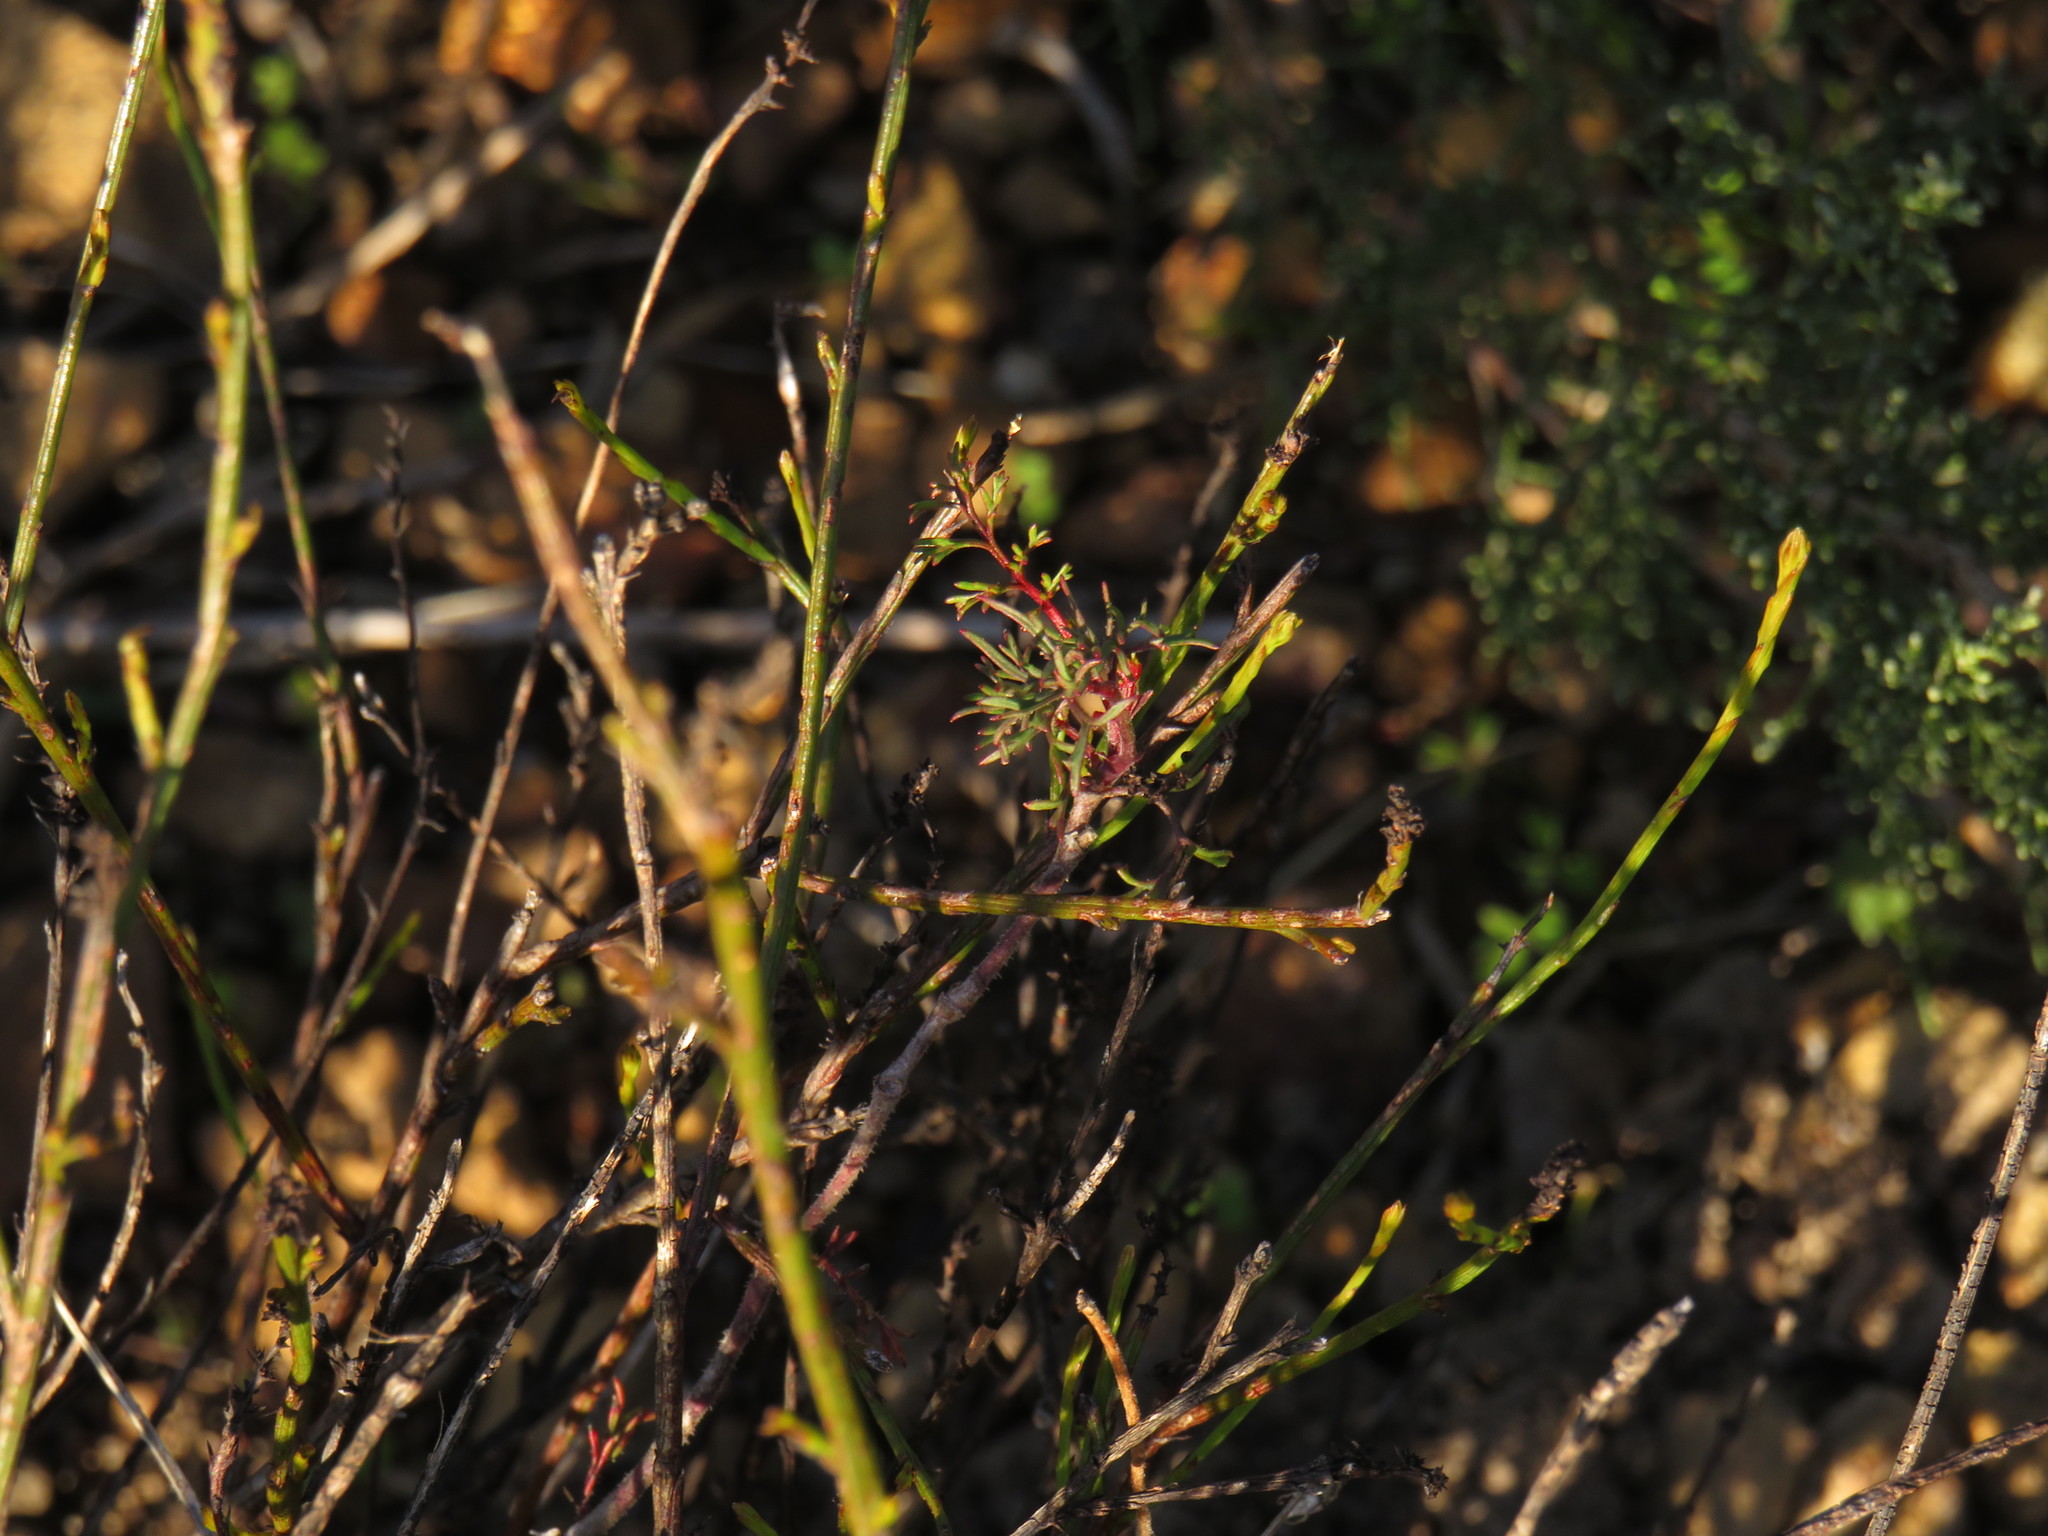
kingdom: Plantae
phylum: Tracheophyta
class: Magnoliopsida
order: Geraniales
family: Geraniaceae
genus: Pelargonium
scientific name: Pelargonium myrrhifolium
